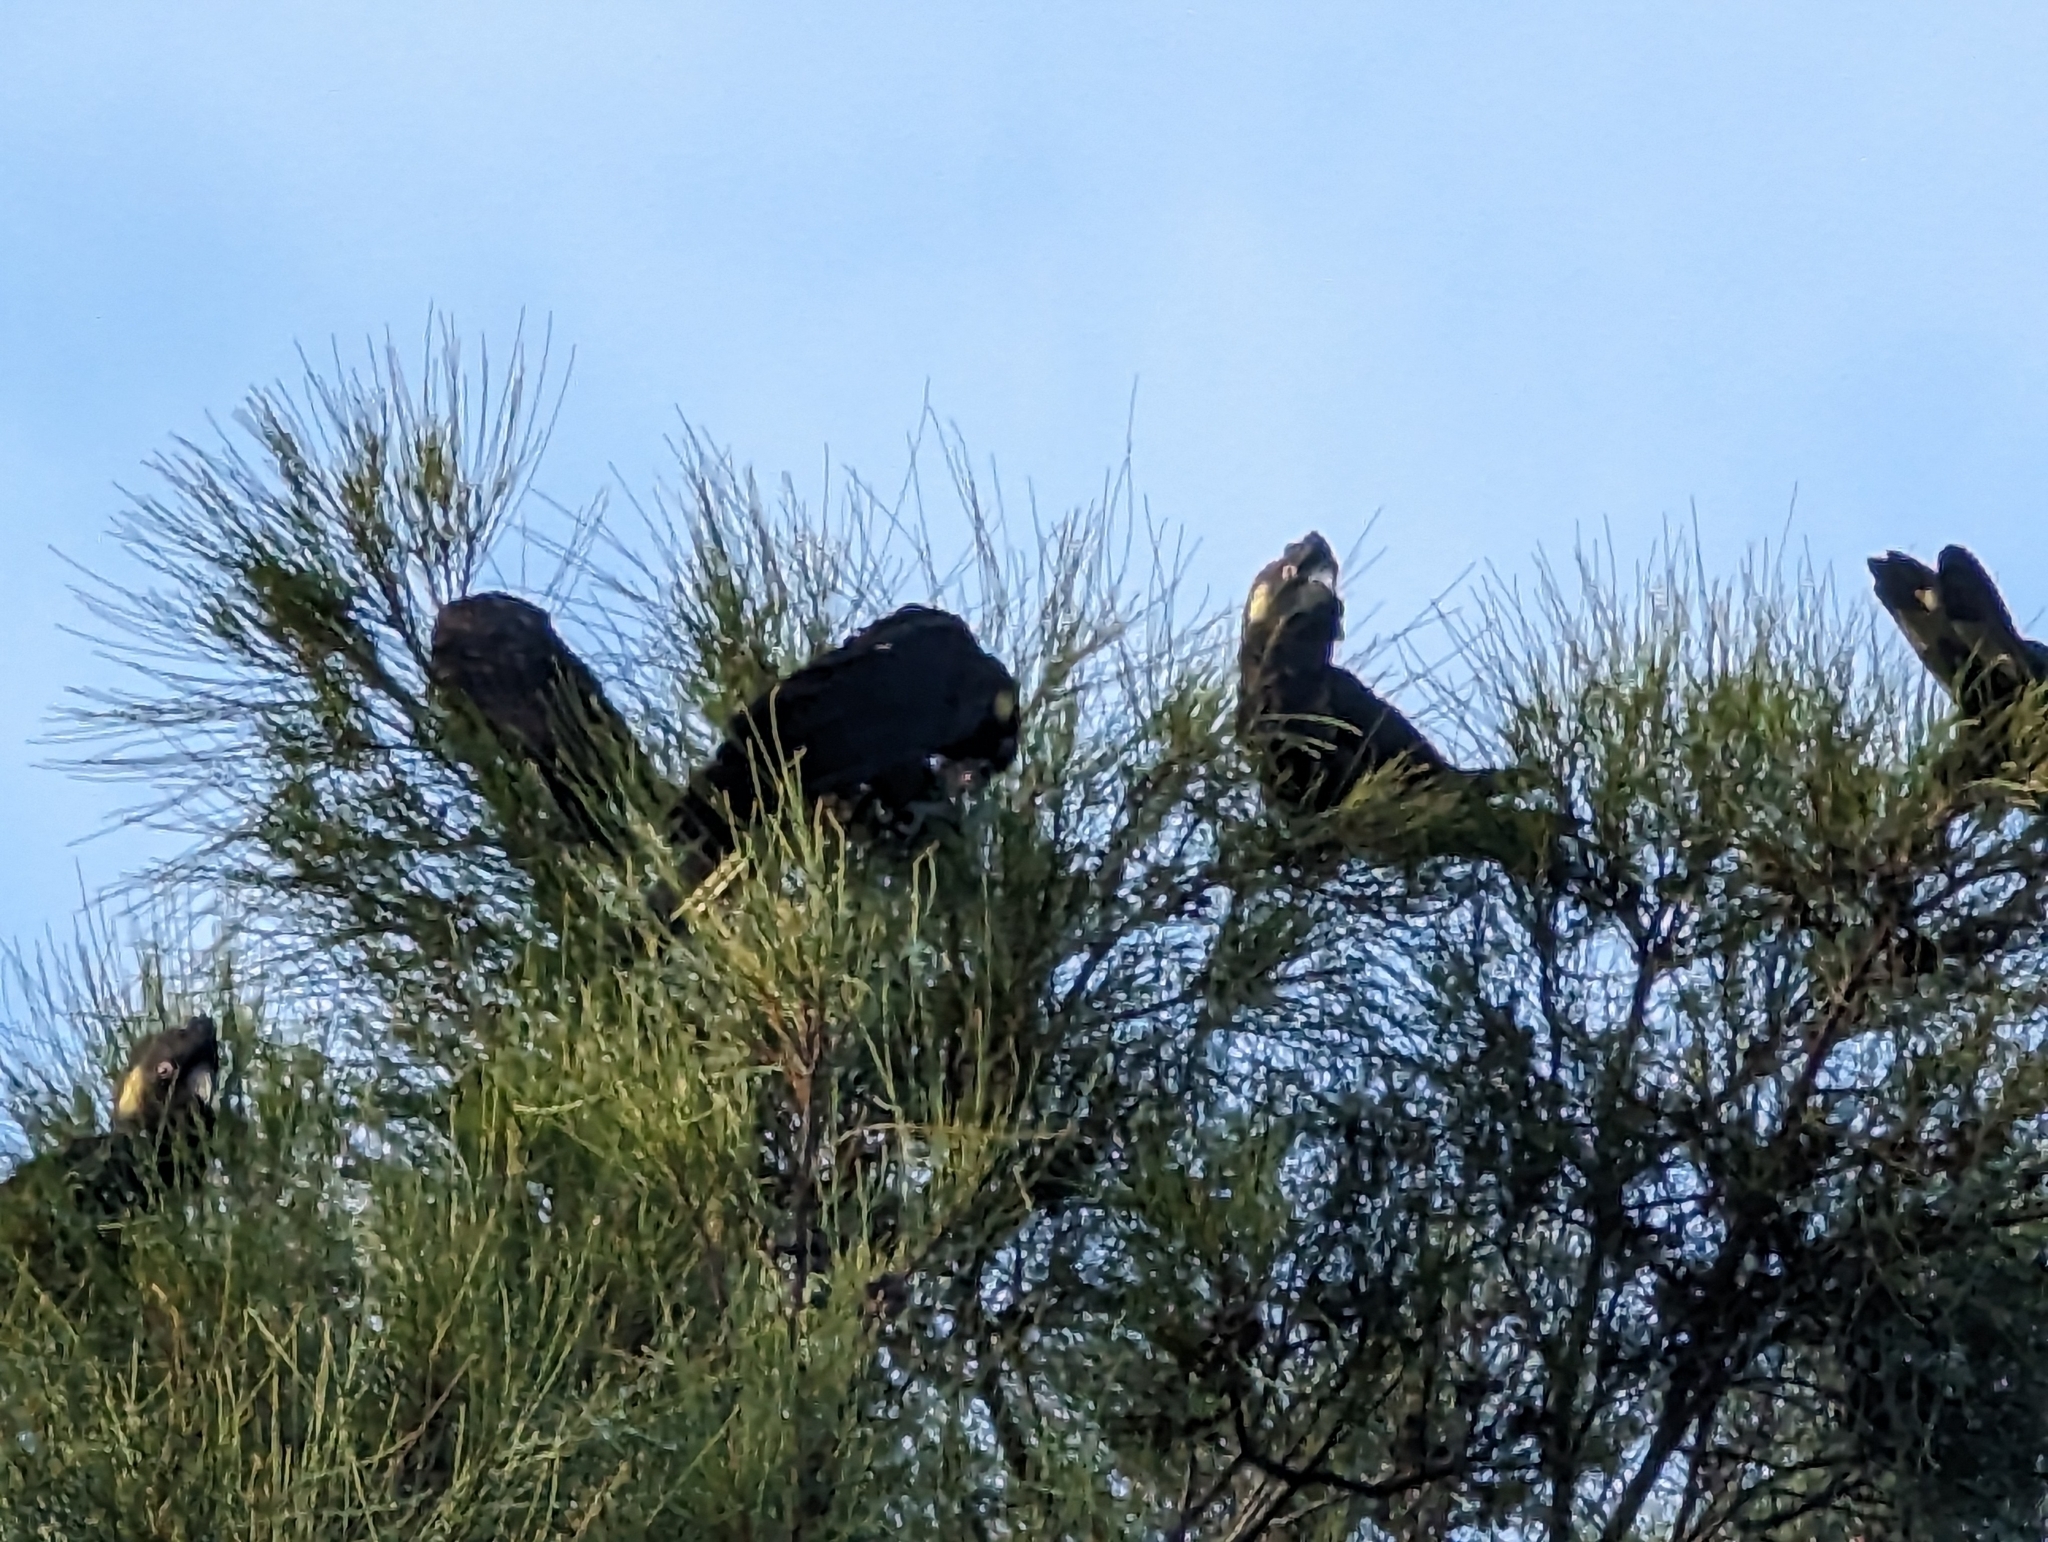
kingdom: Animalia
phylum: Chordata
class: Aves
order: Psittaciformes
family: Cacatuidae
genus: Zanda
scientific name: Zanda funerea
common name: Yellow-tailed black-cockatoo
